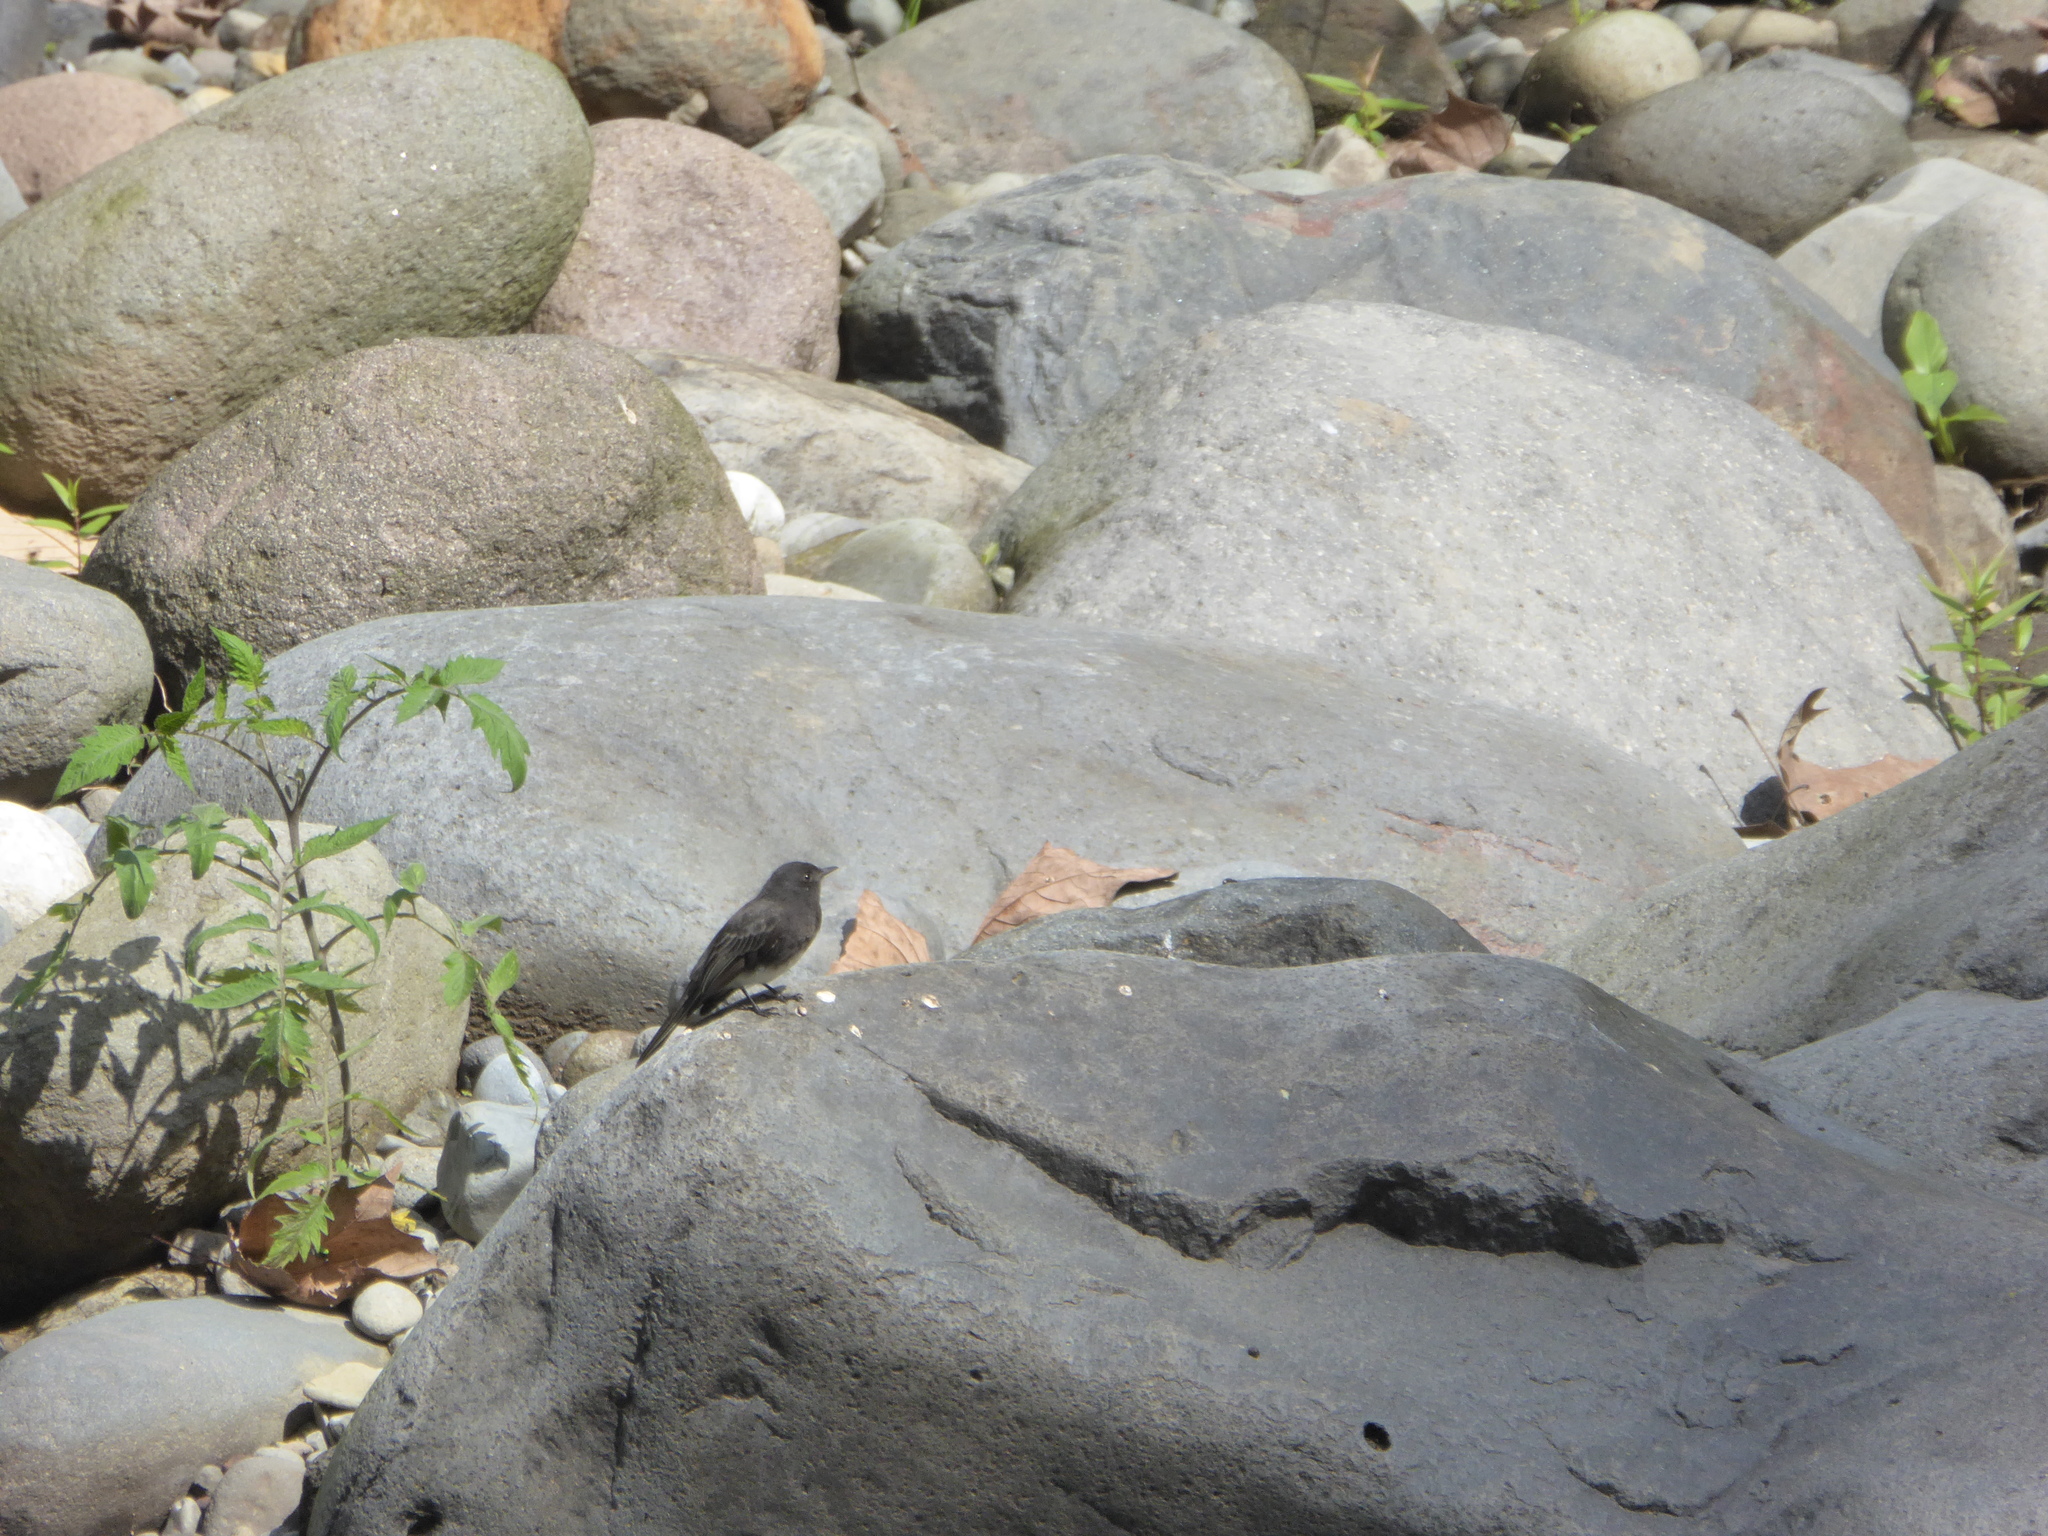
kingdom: Animalia
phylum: Chordata
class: Aves
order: Passeriformes
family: Tyrannidae
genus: Sayornis
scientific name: Sayornis nigricans
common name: Black phoebe
